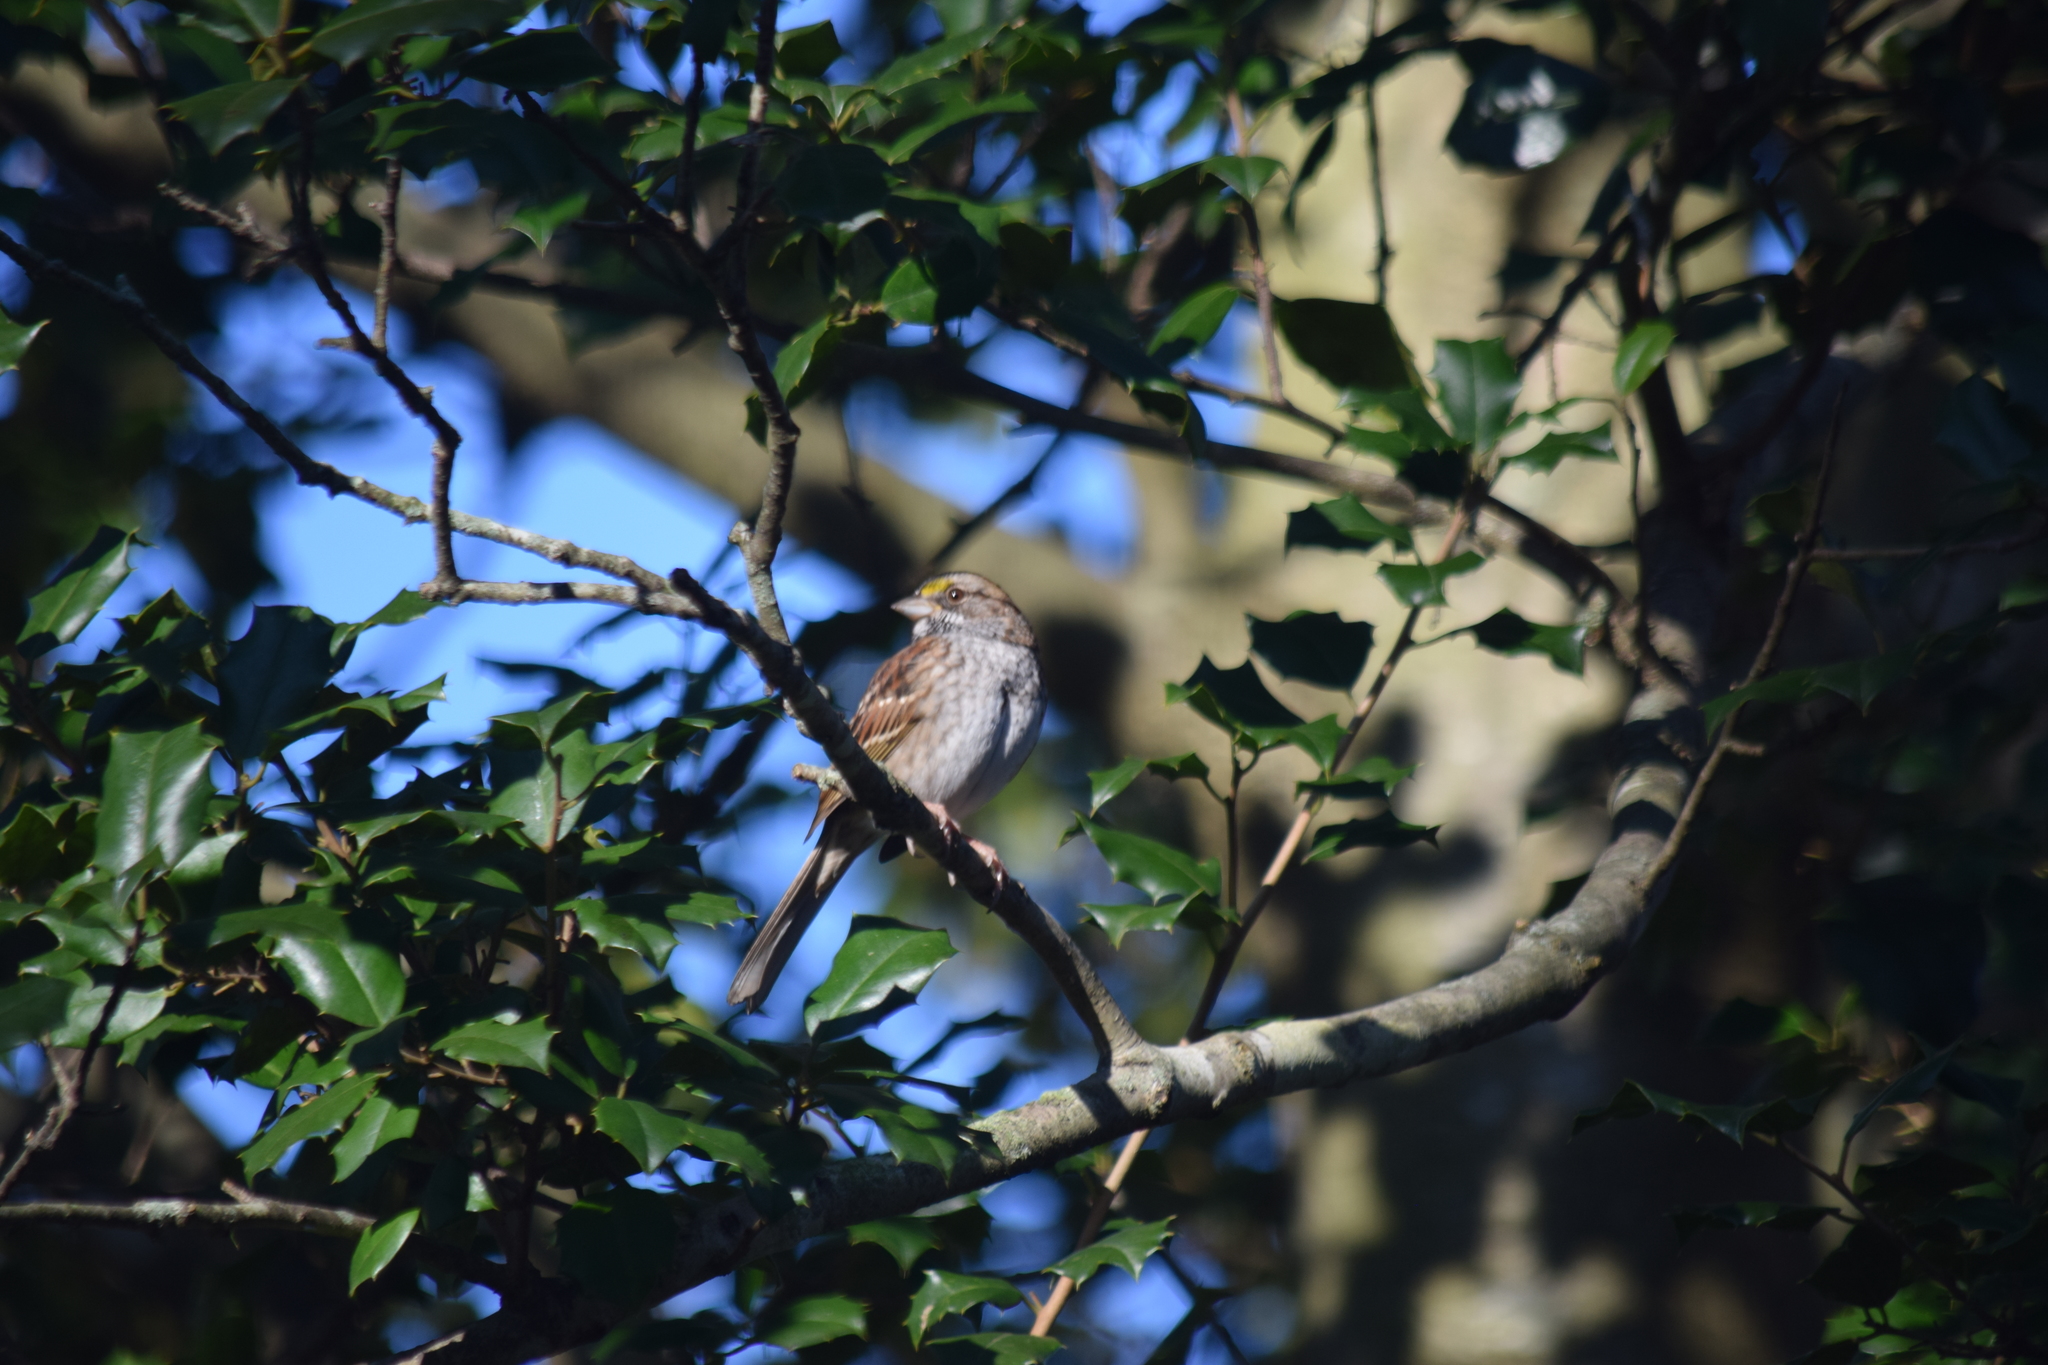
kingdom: Animalia
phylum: Chordata
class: Aves
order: Passeriformes
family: Passerellidae
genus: Zonotrichia
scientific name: Zonotrichia albicollis
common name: White-throated sparrow
